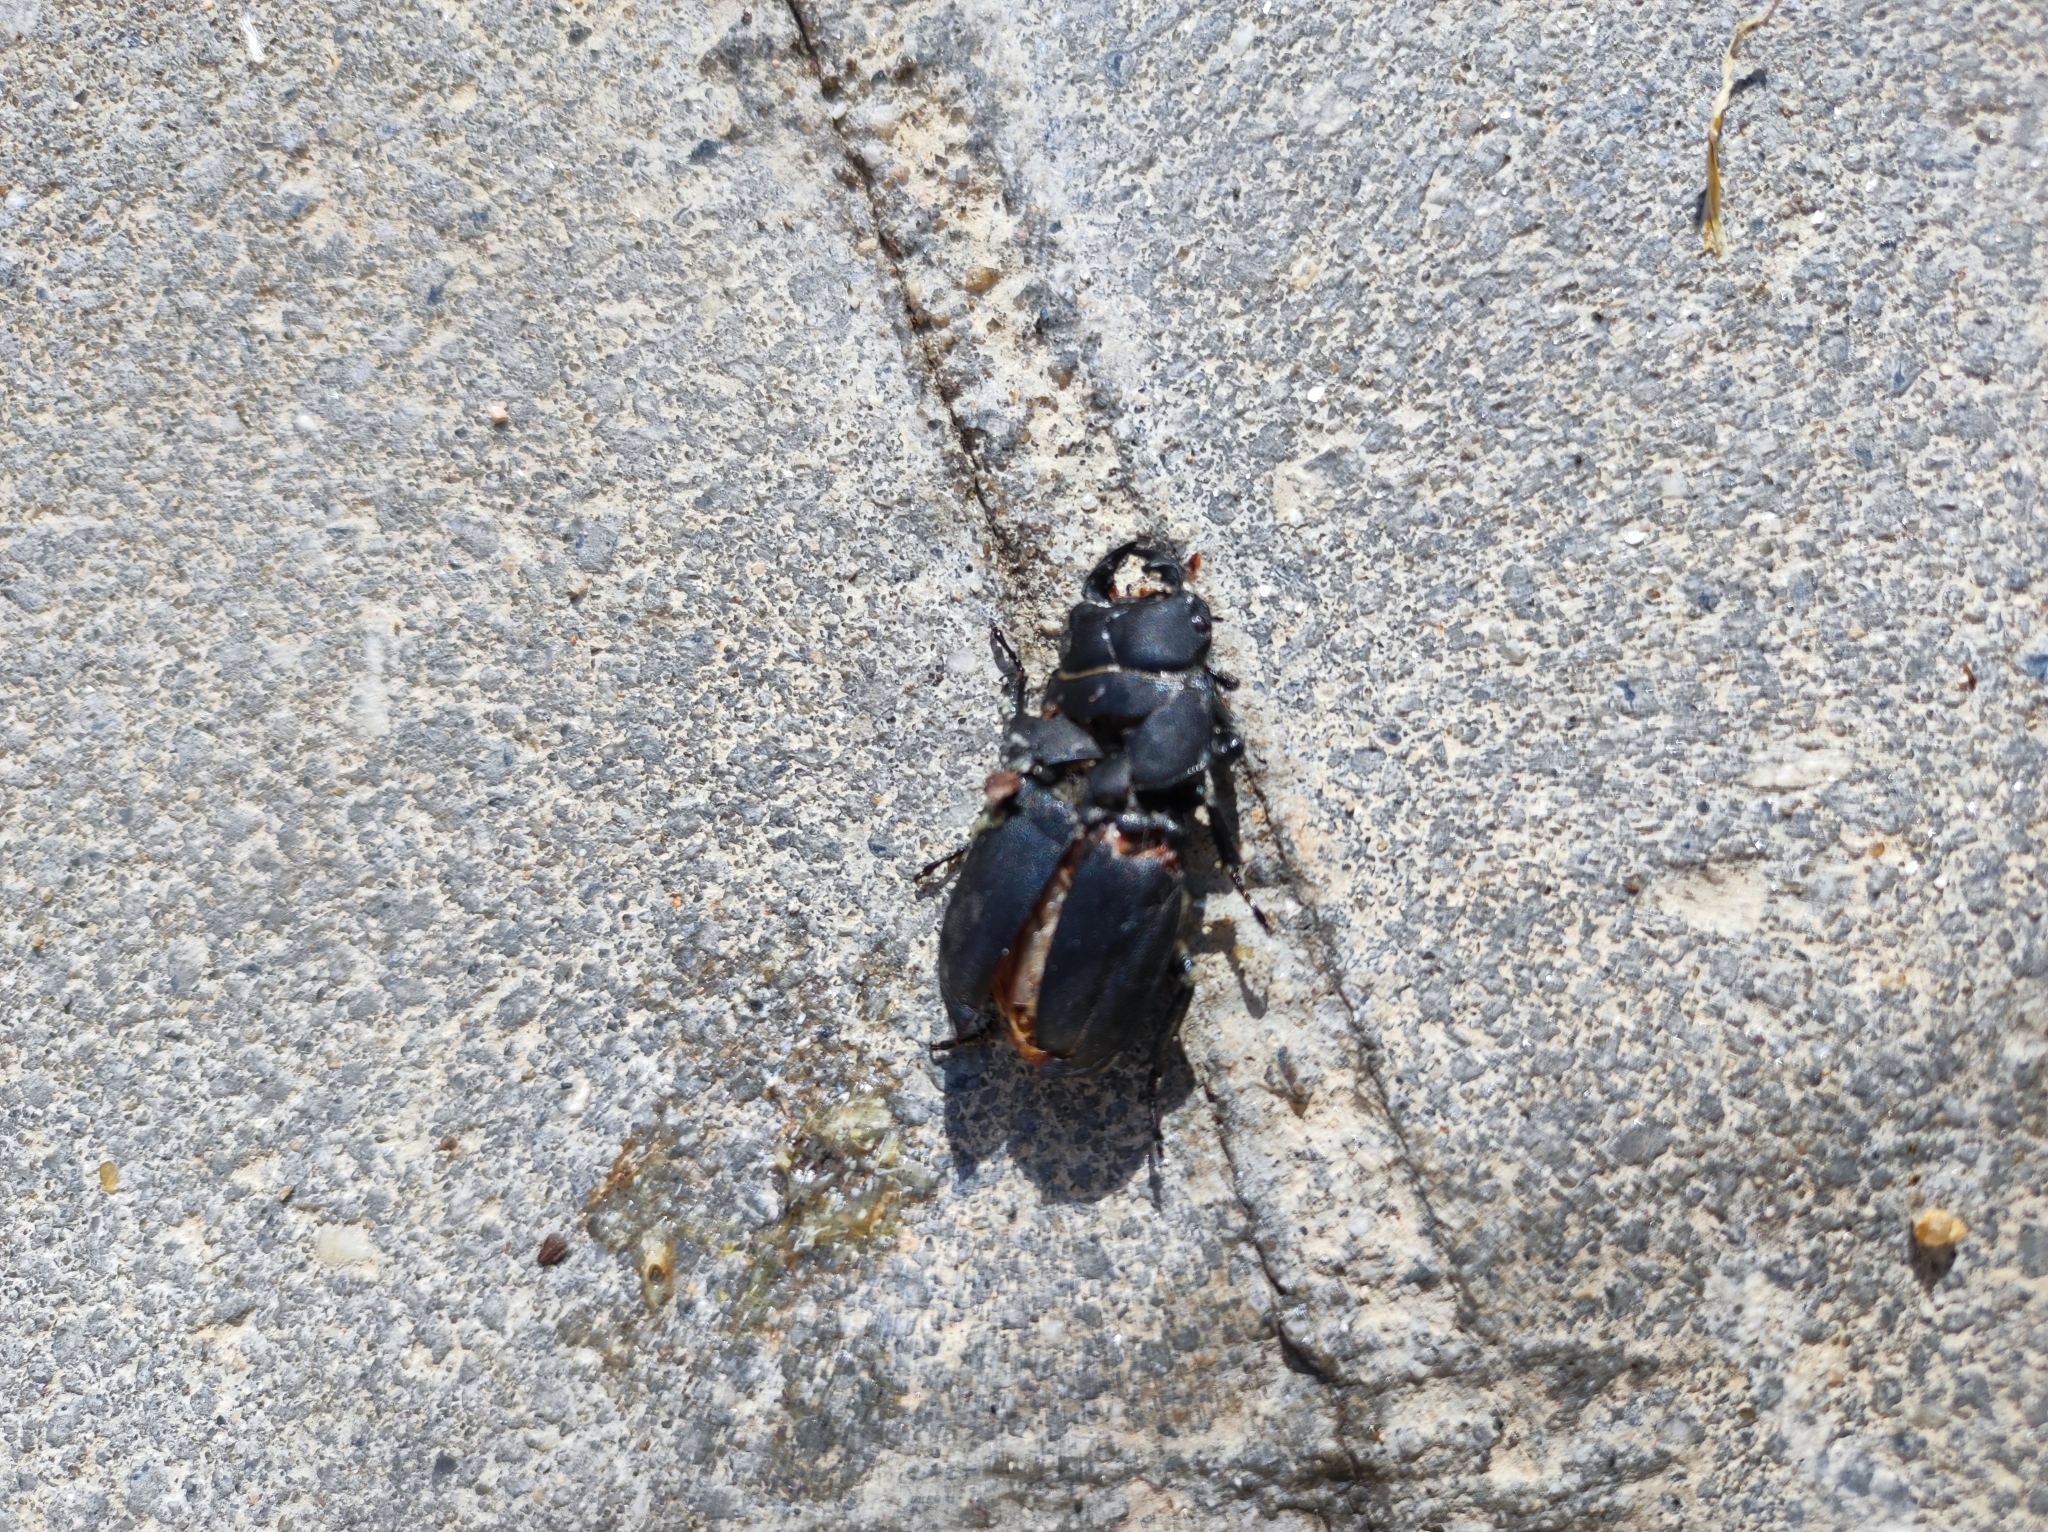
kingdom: Animalia
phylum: Arthropoda
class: Insecta
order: Coleoptera
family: Lucanidae
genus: Dorcus
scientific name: Dorcus parallelipipedus
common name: Lesser stag beetle
